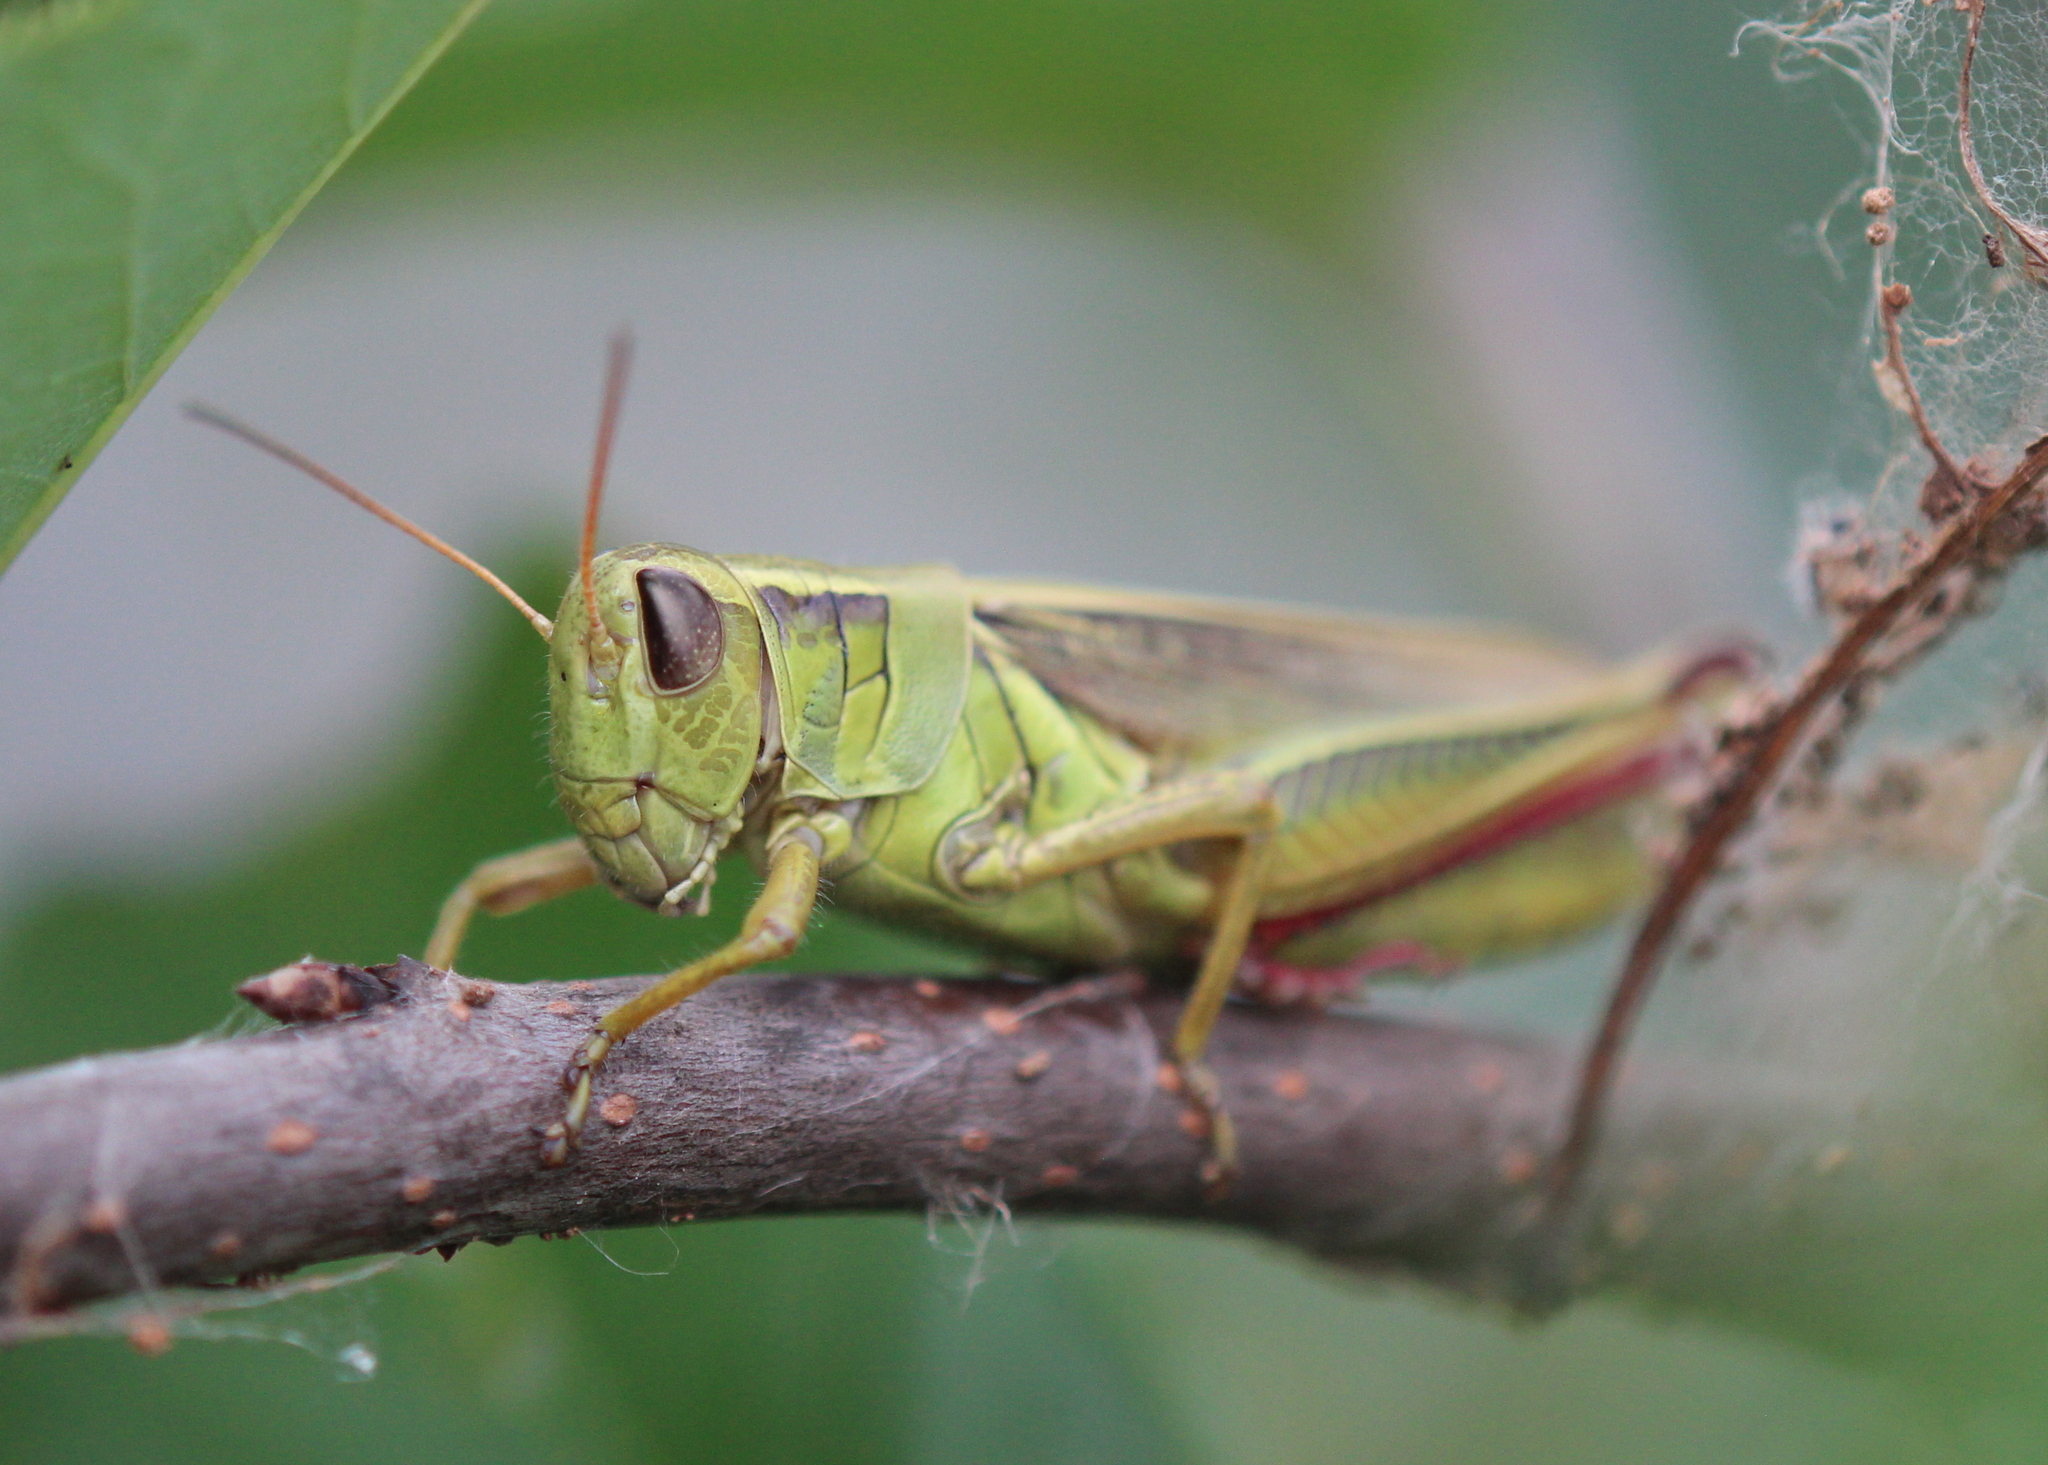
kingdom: Animalia
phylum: Arthropoda
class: Insecta
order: Orthoptera
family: Acrididae
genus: Melanoplus
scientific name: Melanoplus bivittatus
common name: Two-striped grasshopper
